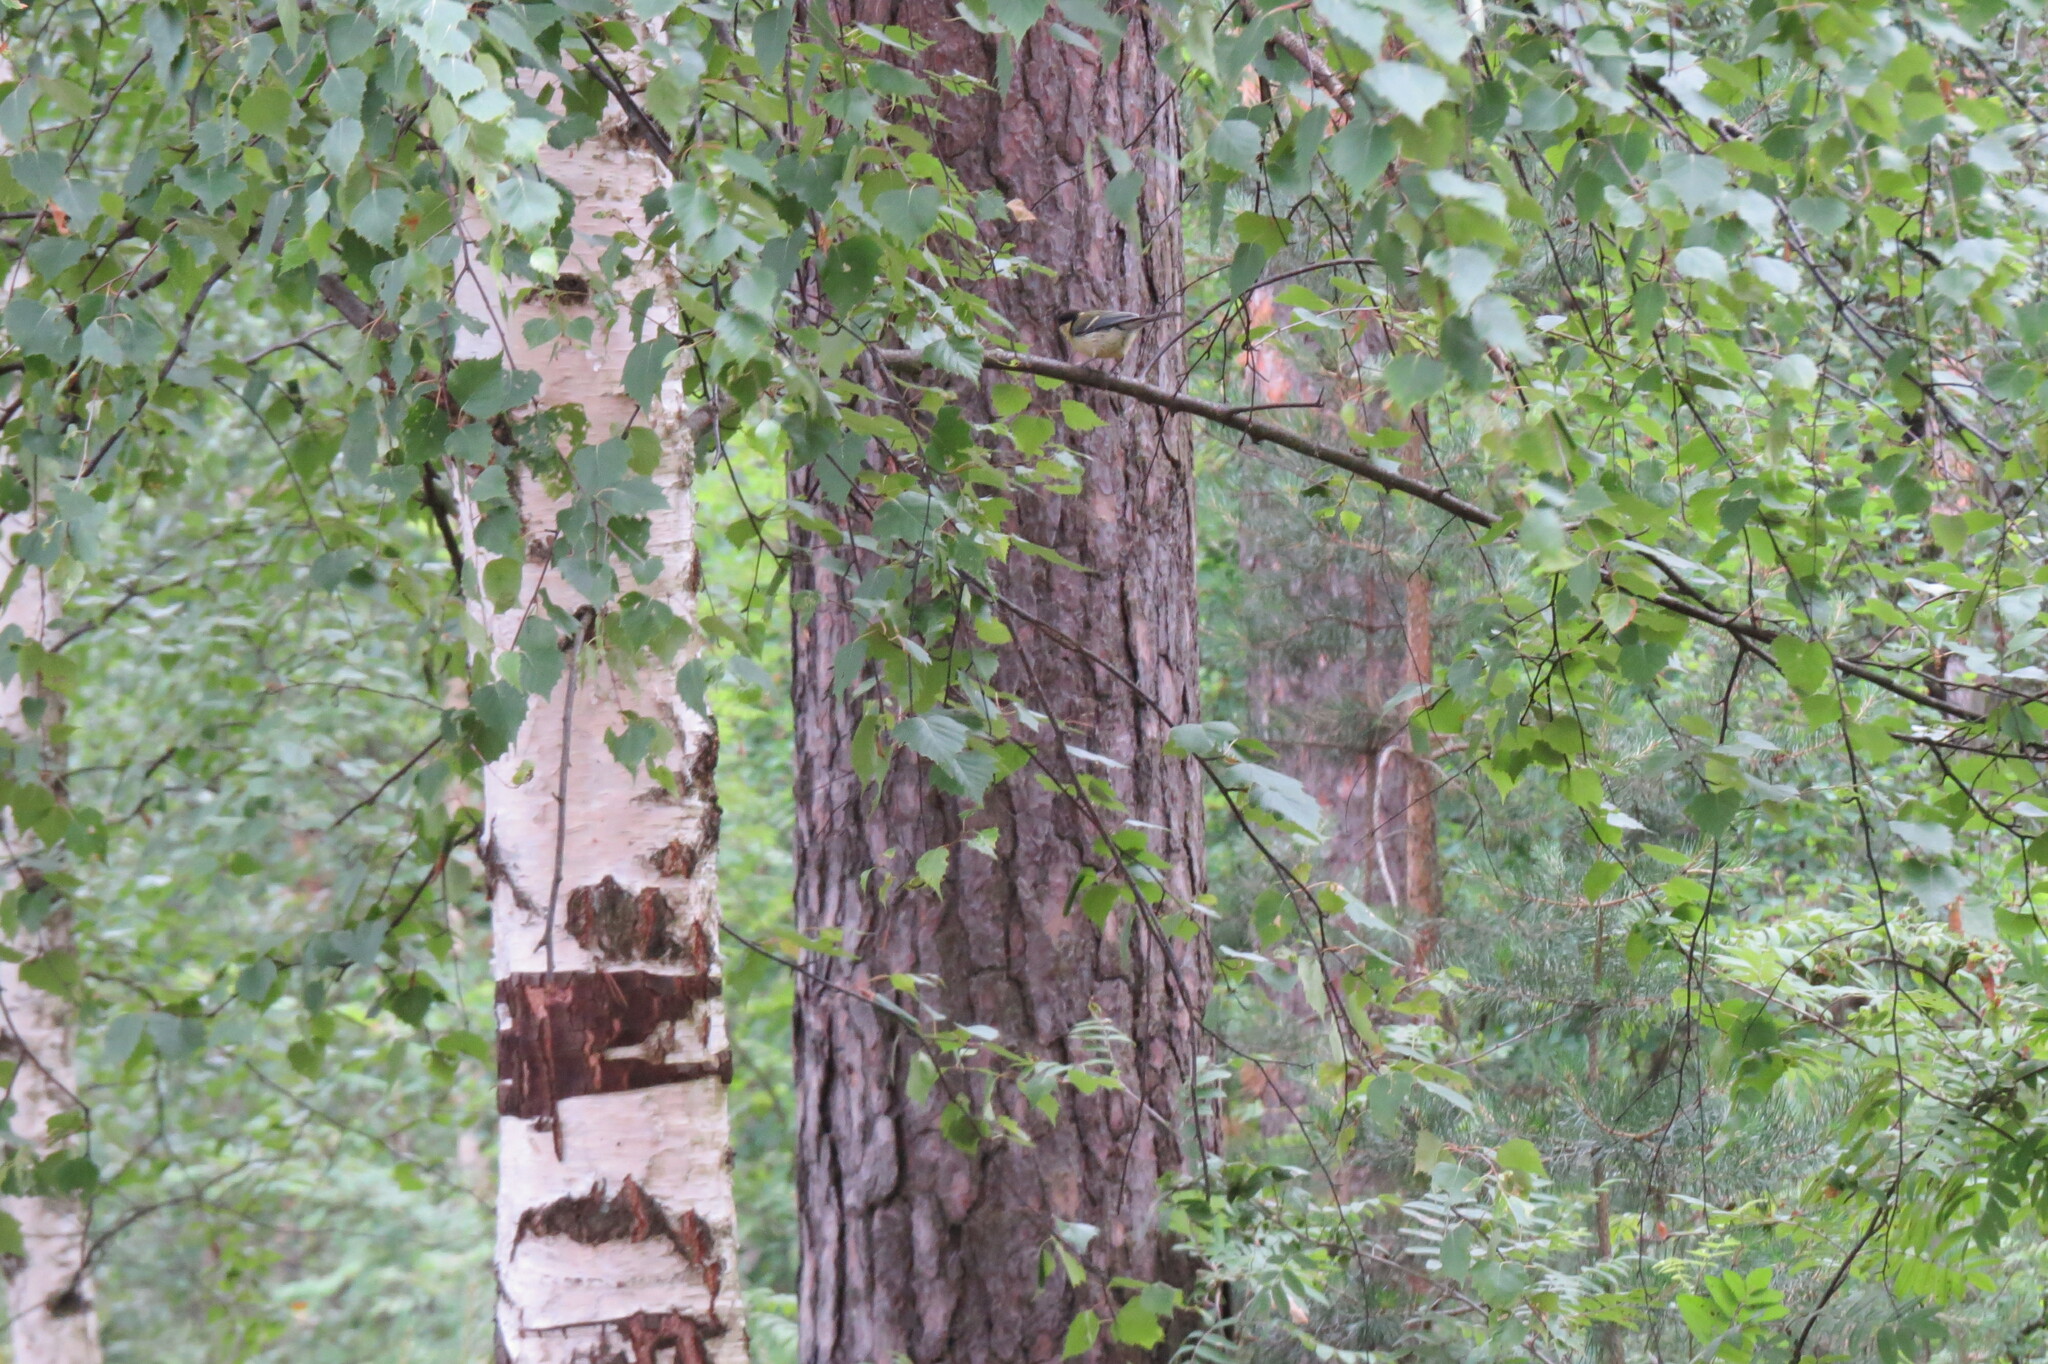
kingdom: Animalia
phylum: Chordata
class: Aves
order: Passeriformes
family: Paridae
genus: Parus
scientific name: Parus major
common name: Great tit
